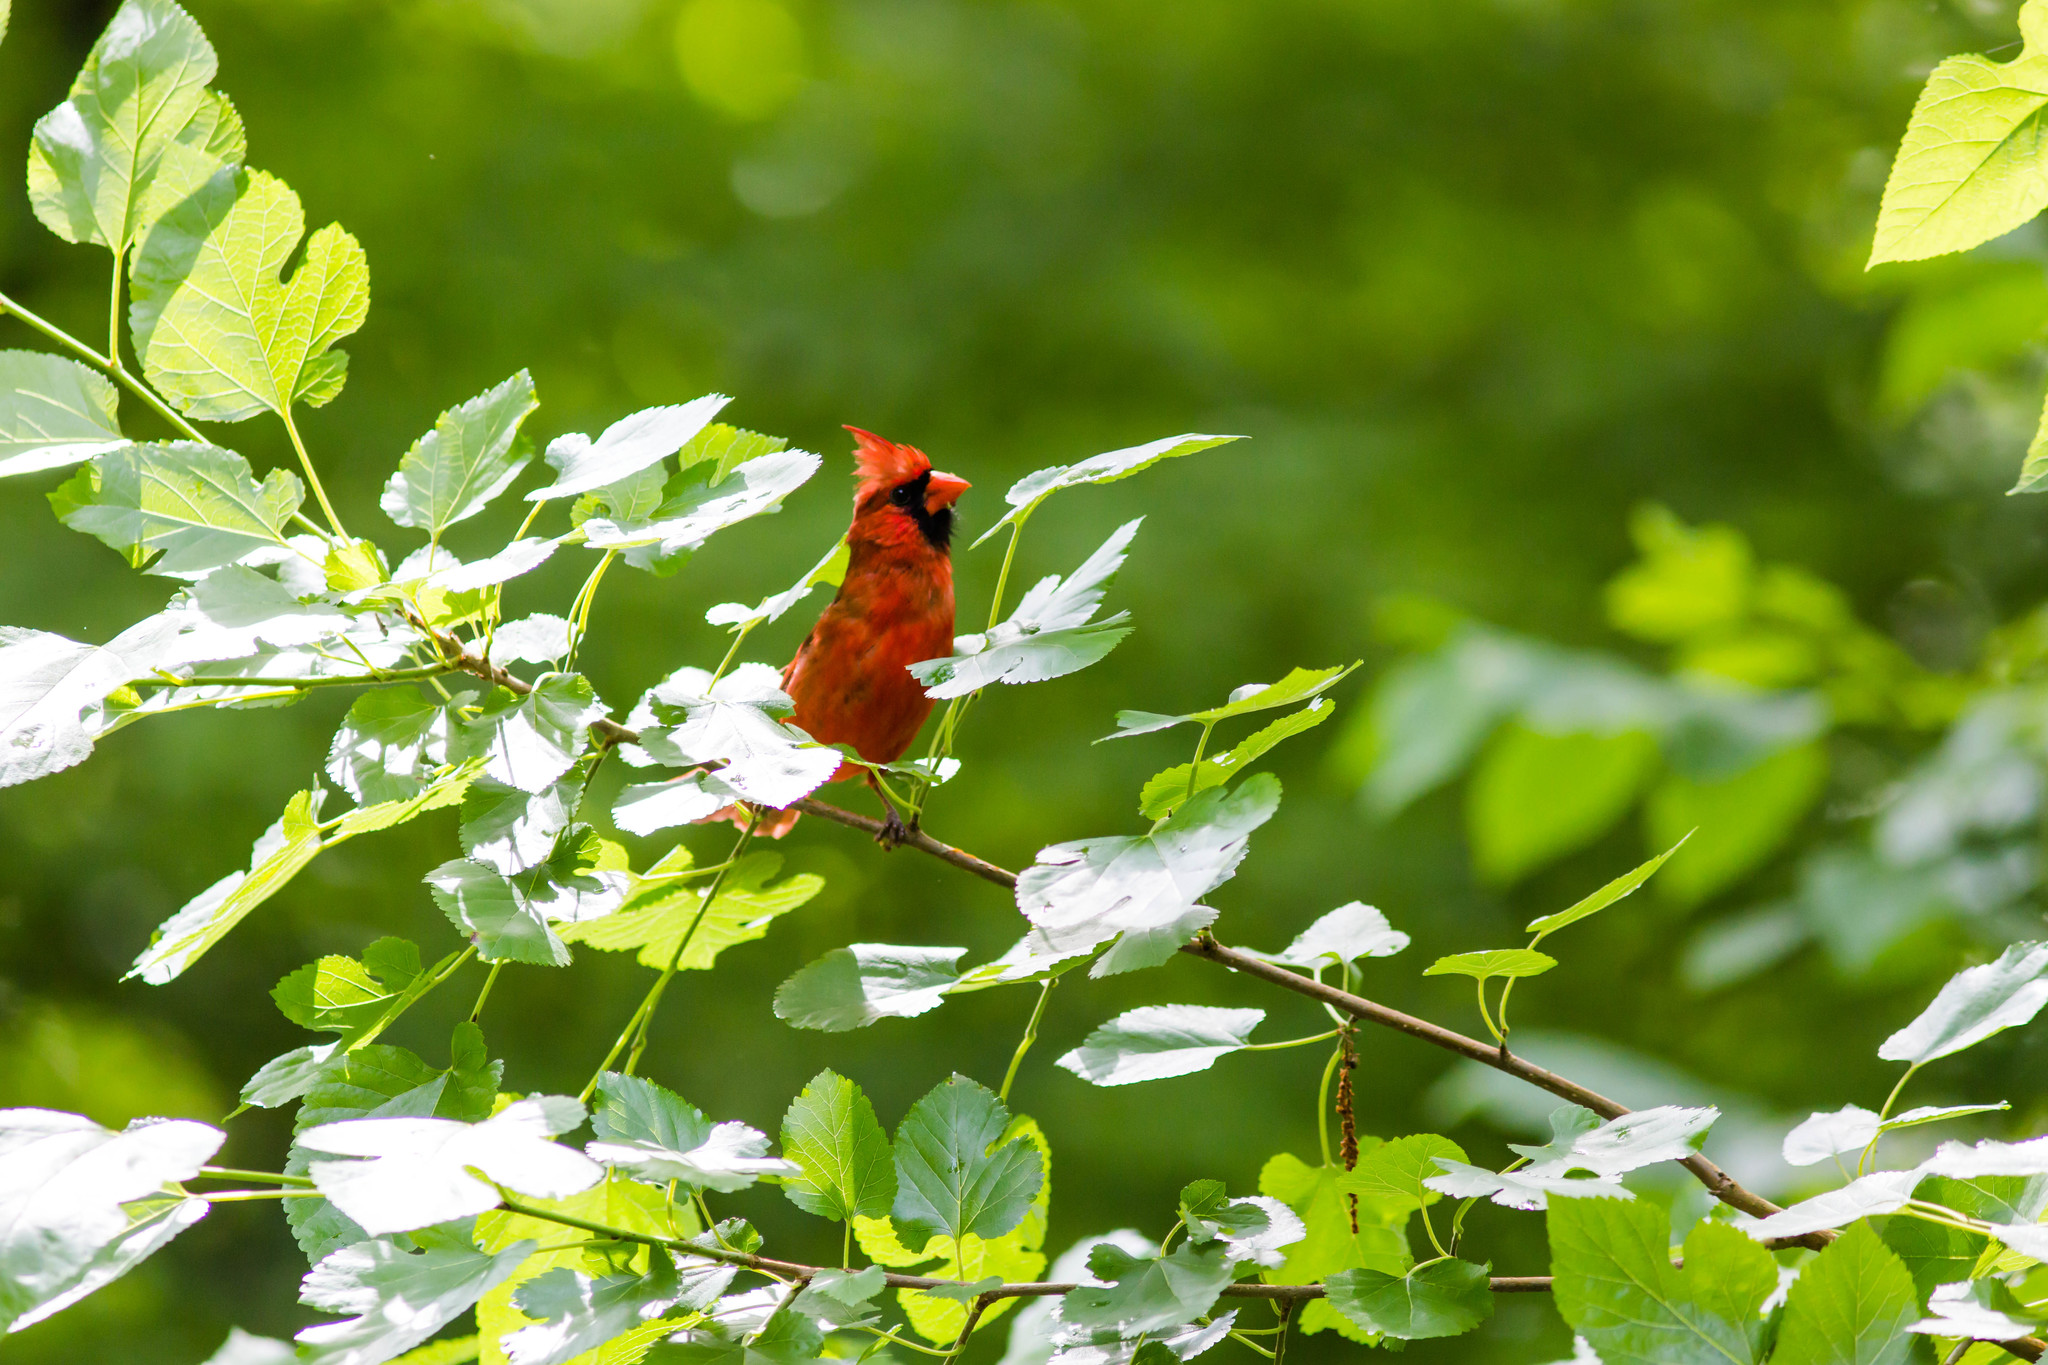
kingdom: Animalia
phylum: Chordata
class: Aves
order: Passeriformes
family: Cardinalidae
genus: Cardinalis
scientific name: Cardinalis cardinalis
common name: Northern cardinal
